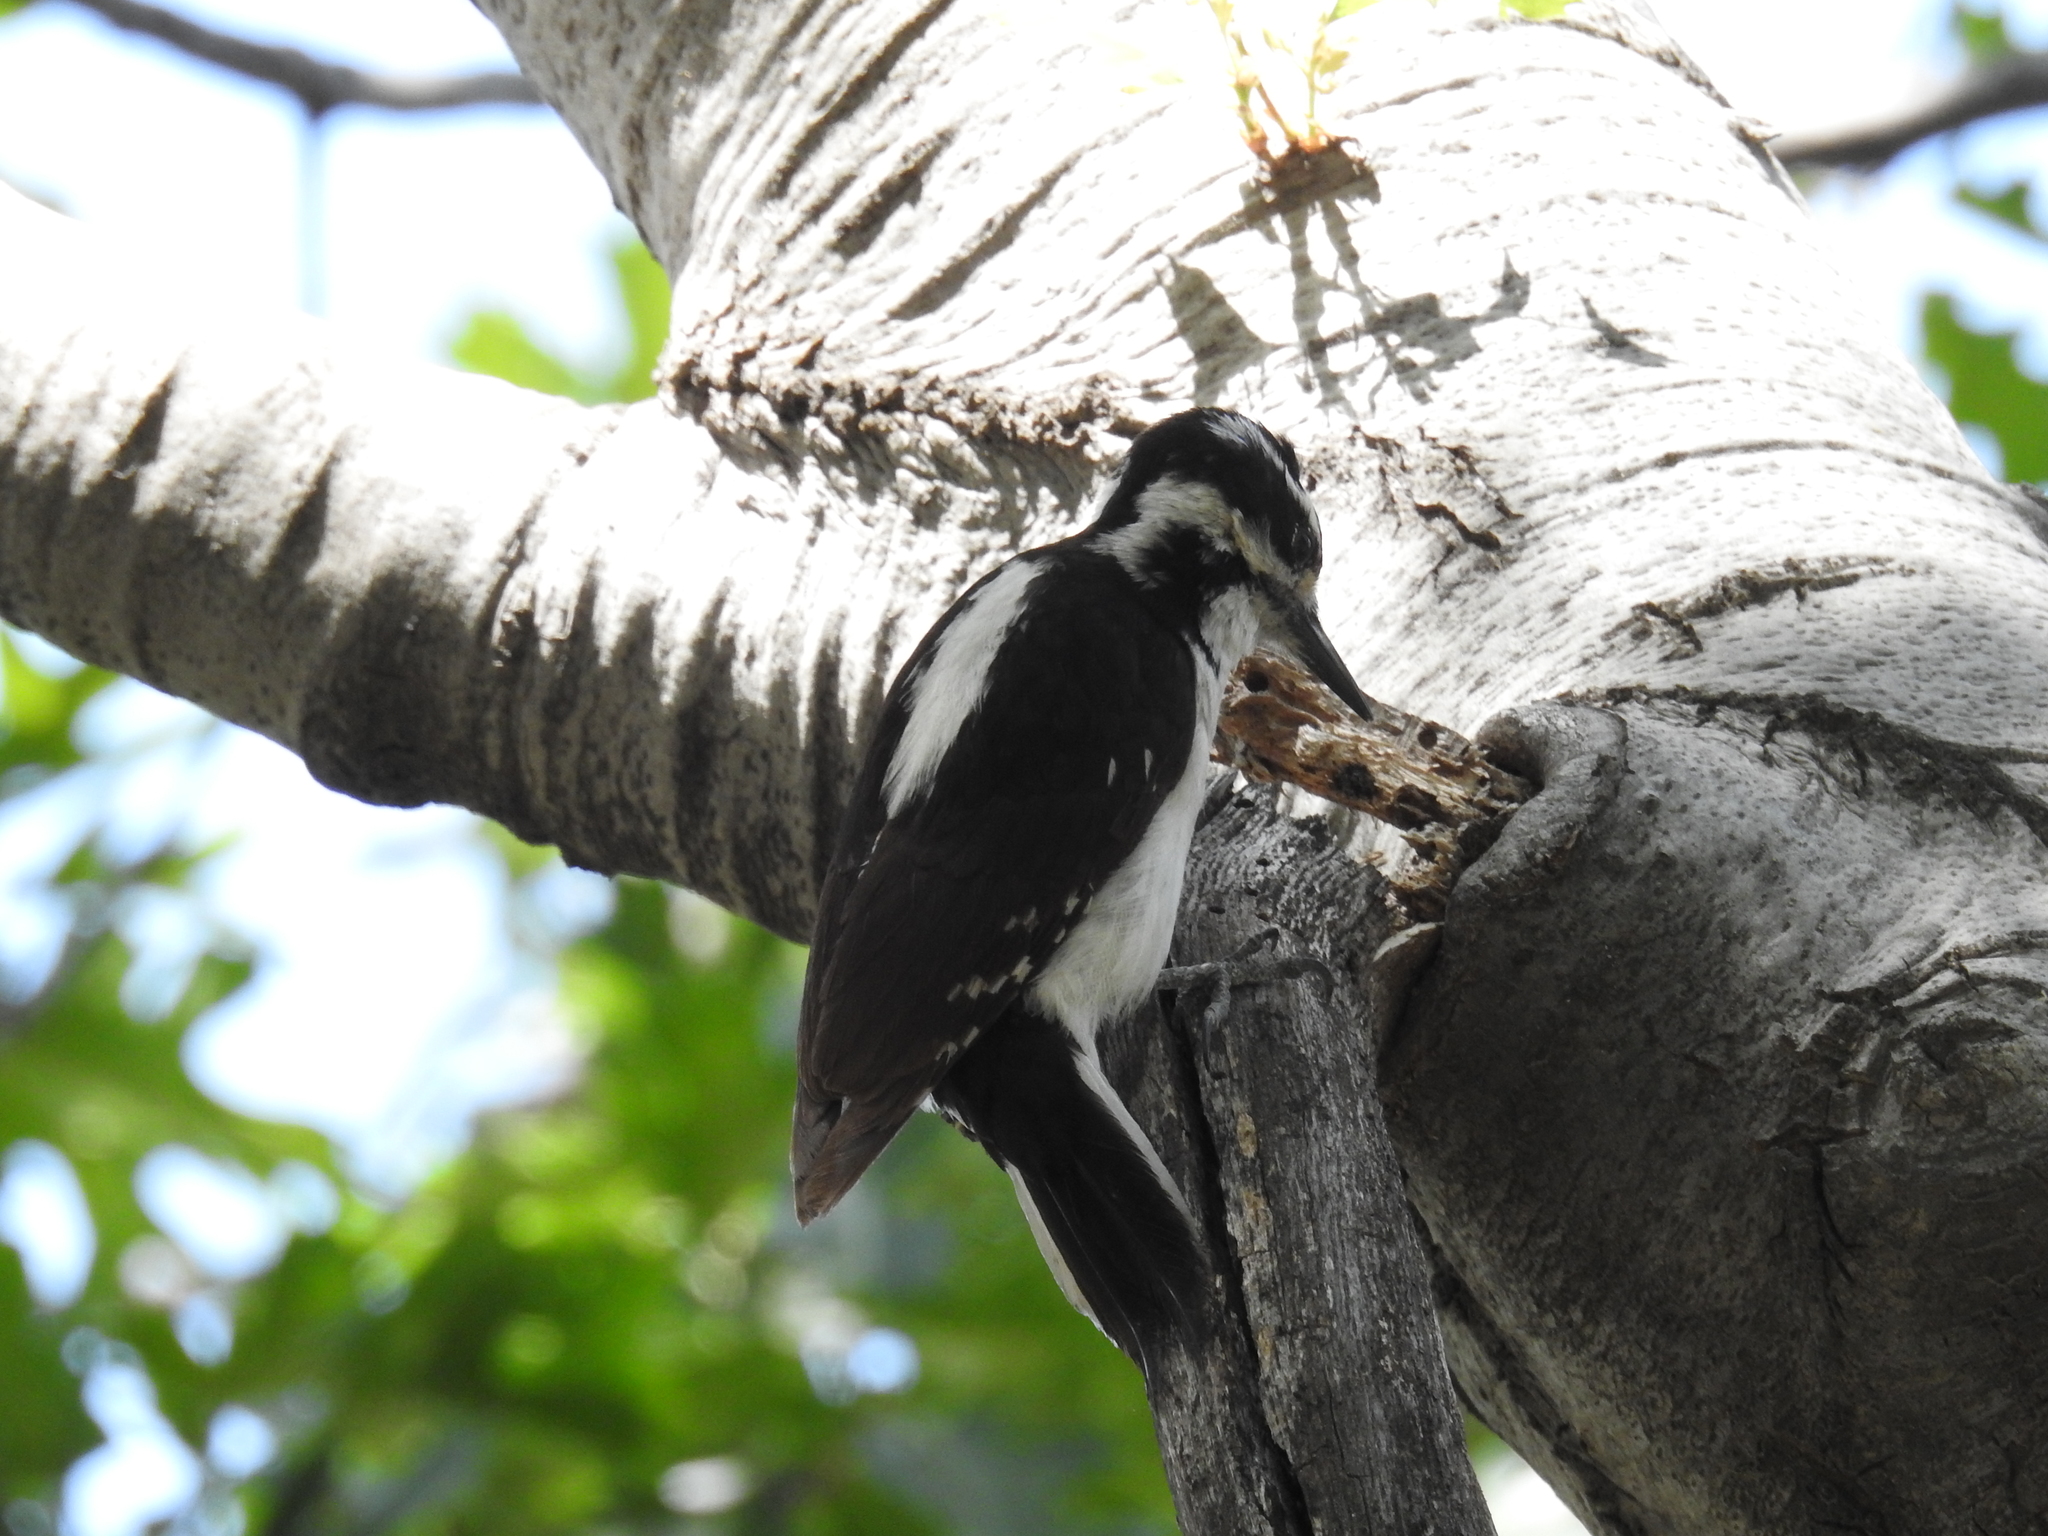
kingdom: Animalia
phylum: Chordata
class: Aves
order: Piciformes
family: Picidae
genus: Leuconotopicus
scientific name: Leuconotopicus villosus
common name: Hairy woodpecker
